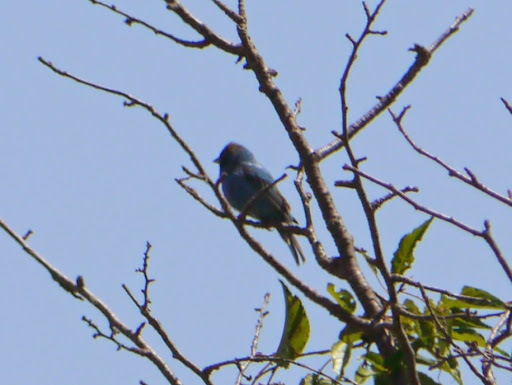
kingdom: Animalia
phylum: Chordata
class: Aves
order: Passeriformes
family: Cardinalidae
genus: Passerina
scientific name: Passerina cyanea
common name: Indigo bunting
